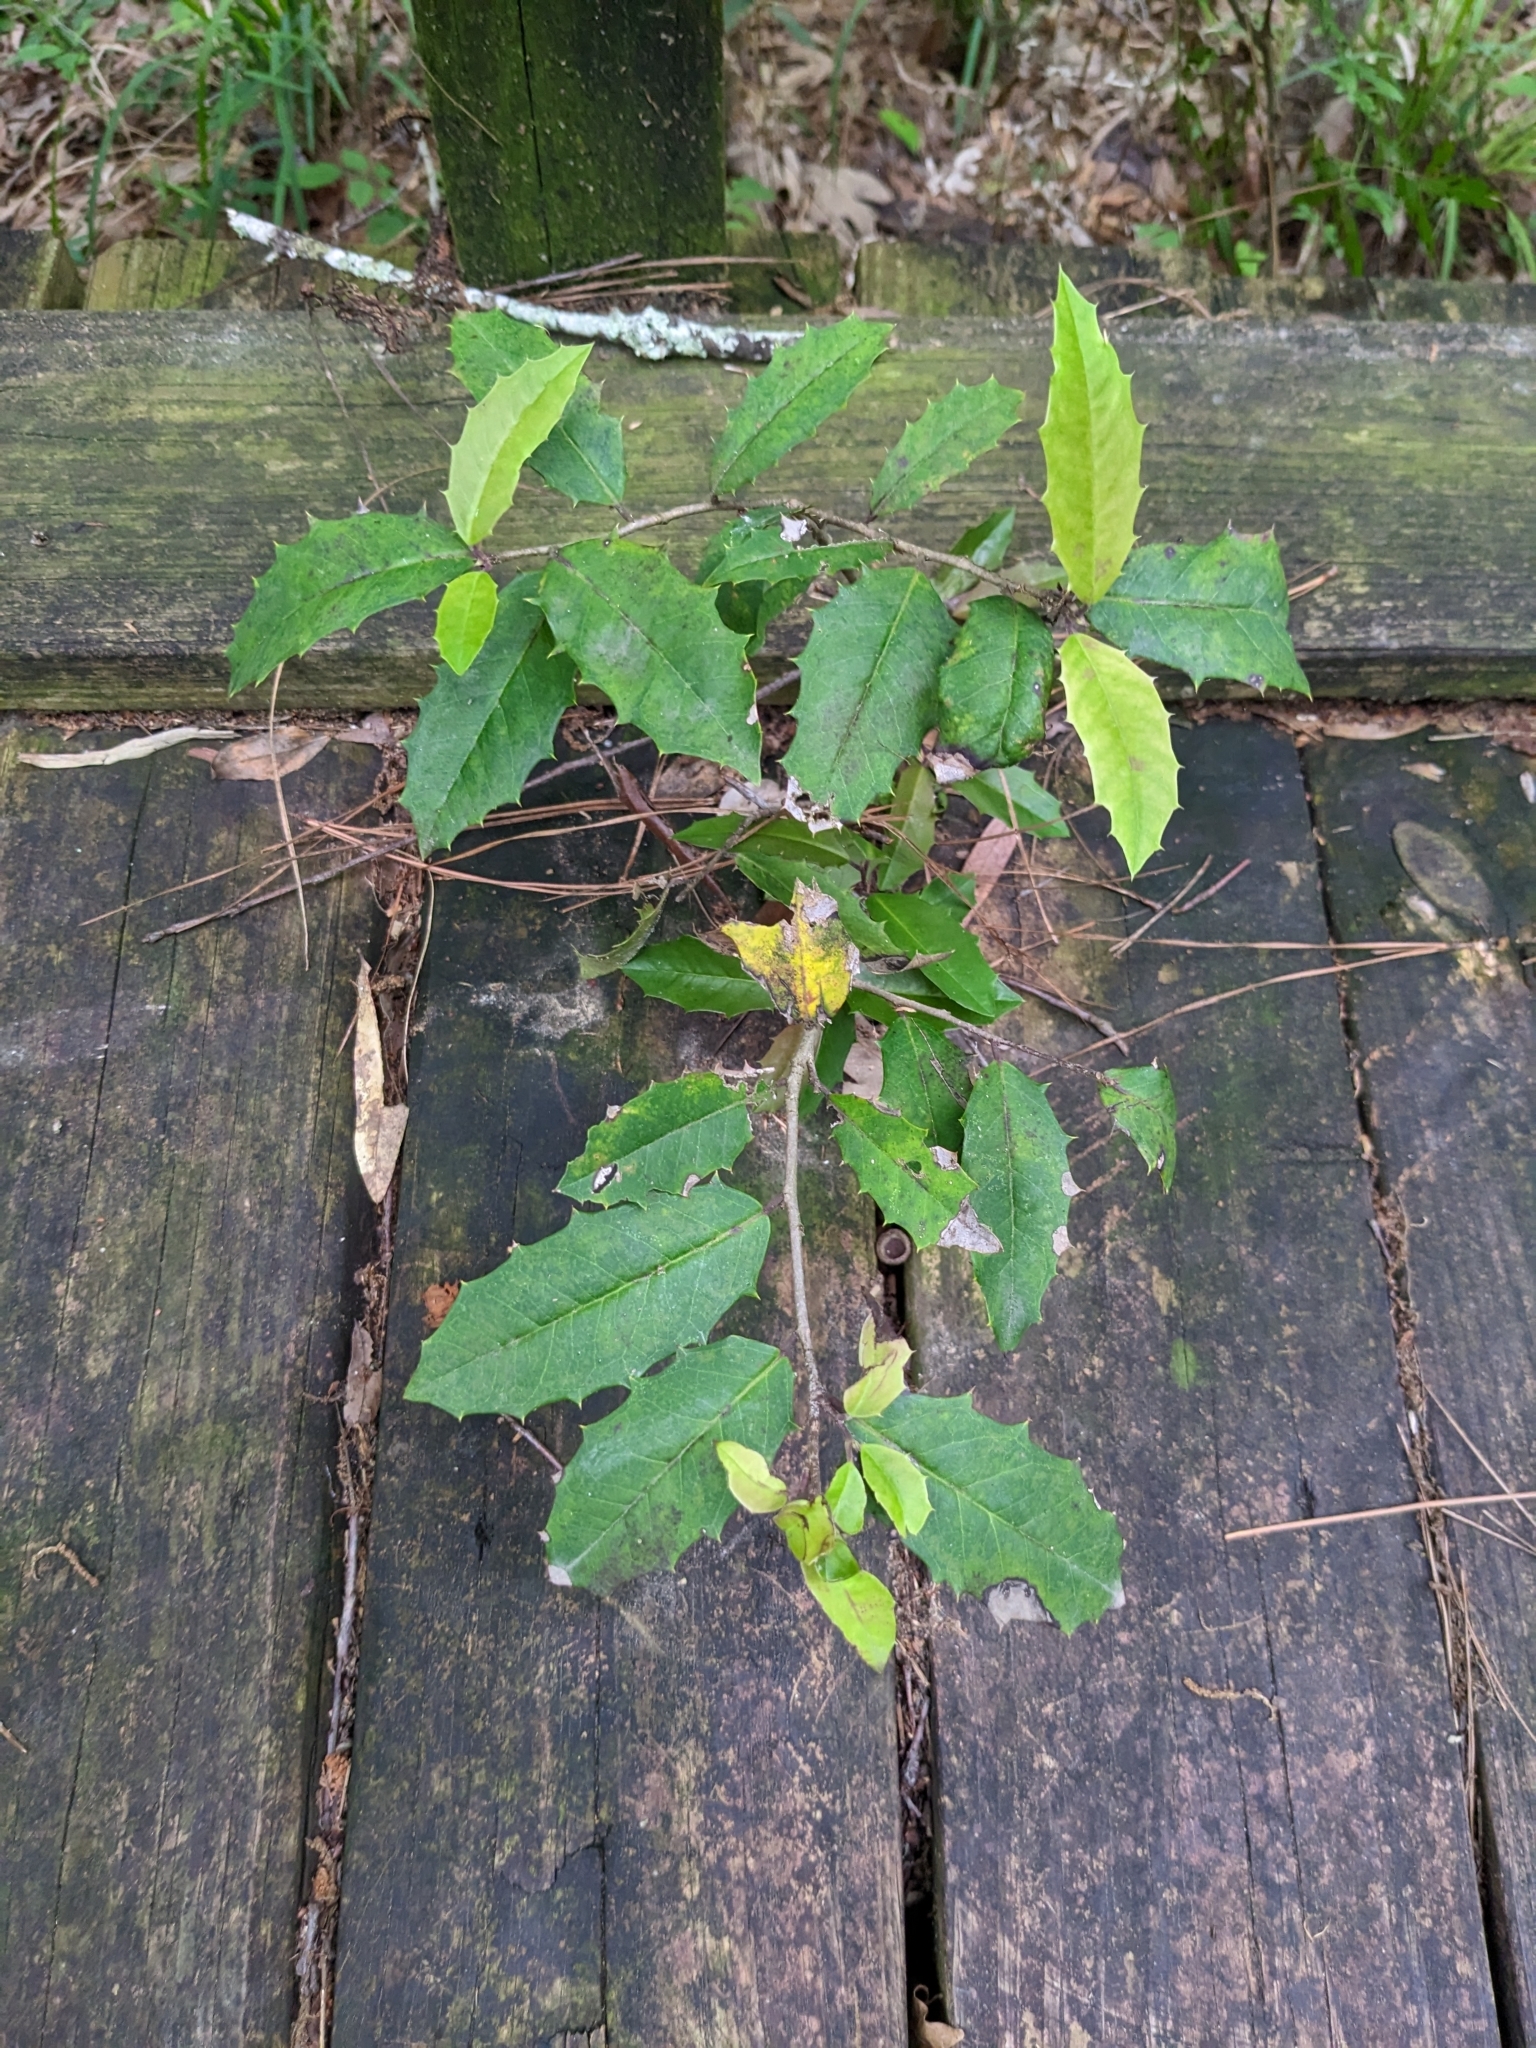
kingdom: Plantae
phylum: Tracheophyta
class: Magnoliopsida
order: Aquifoliales
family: Aquifoliaceae
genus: Ilex
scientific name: Ilex opaca
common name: American holly
